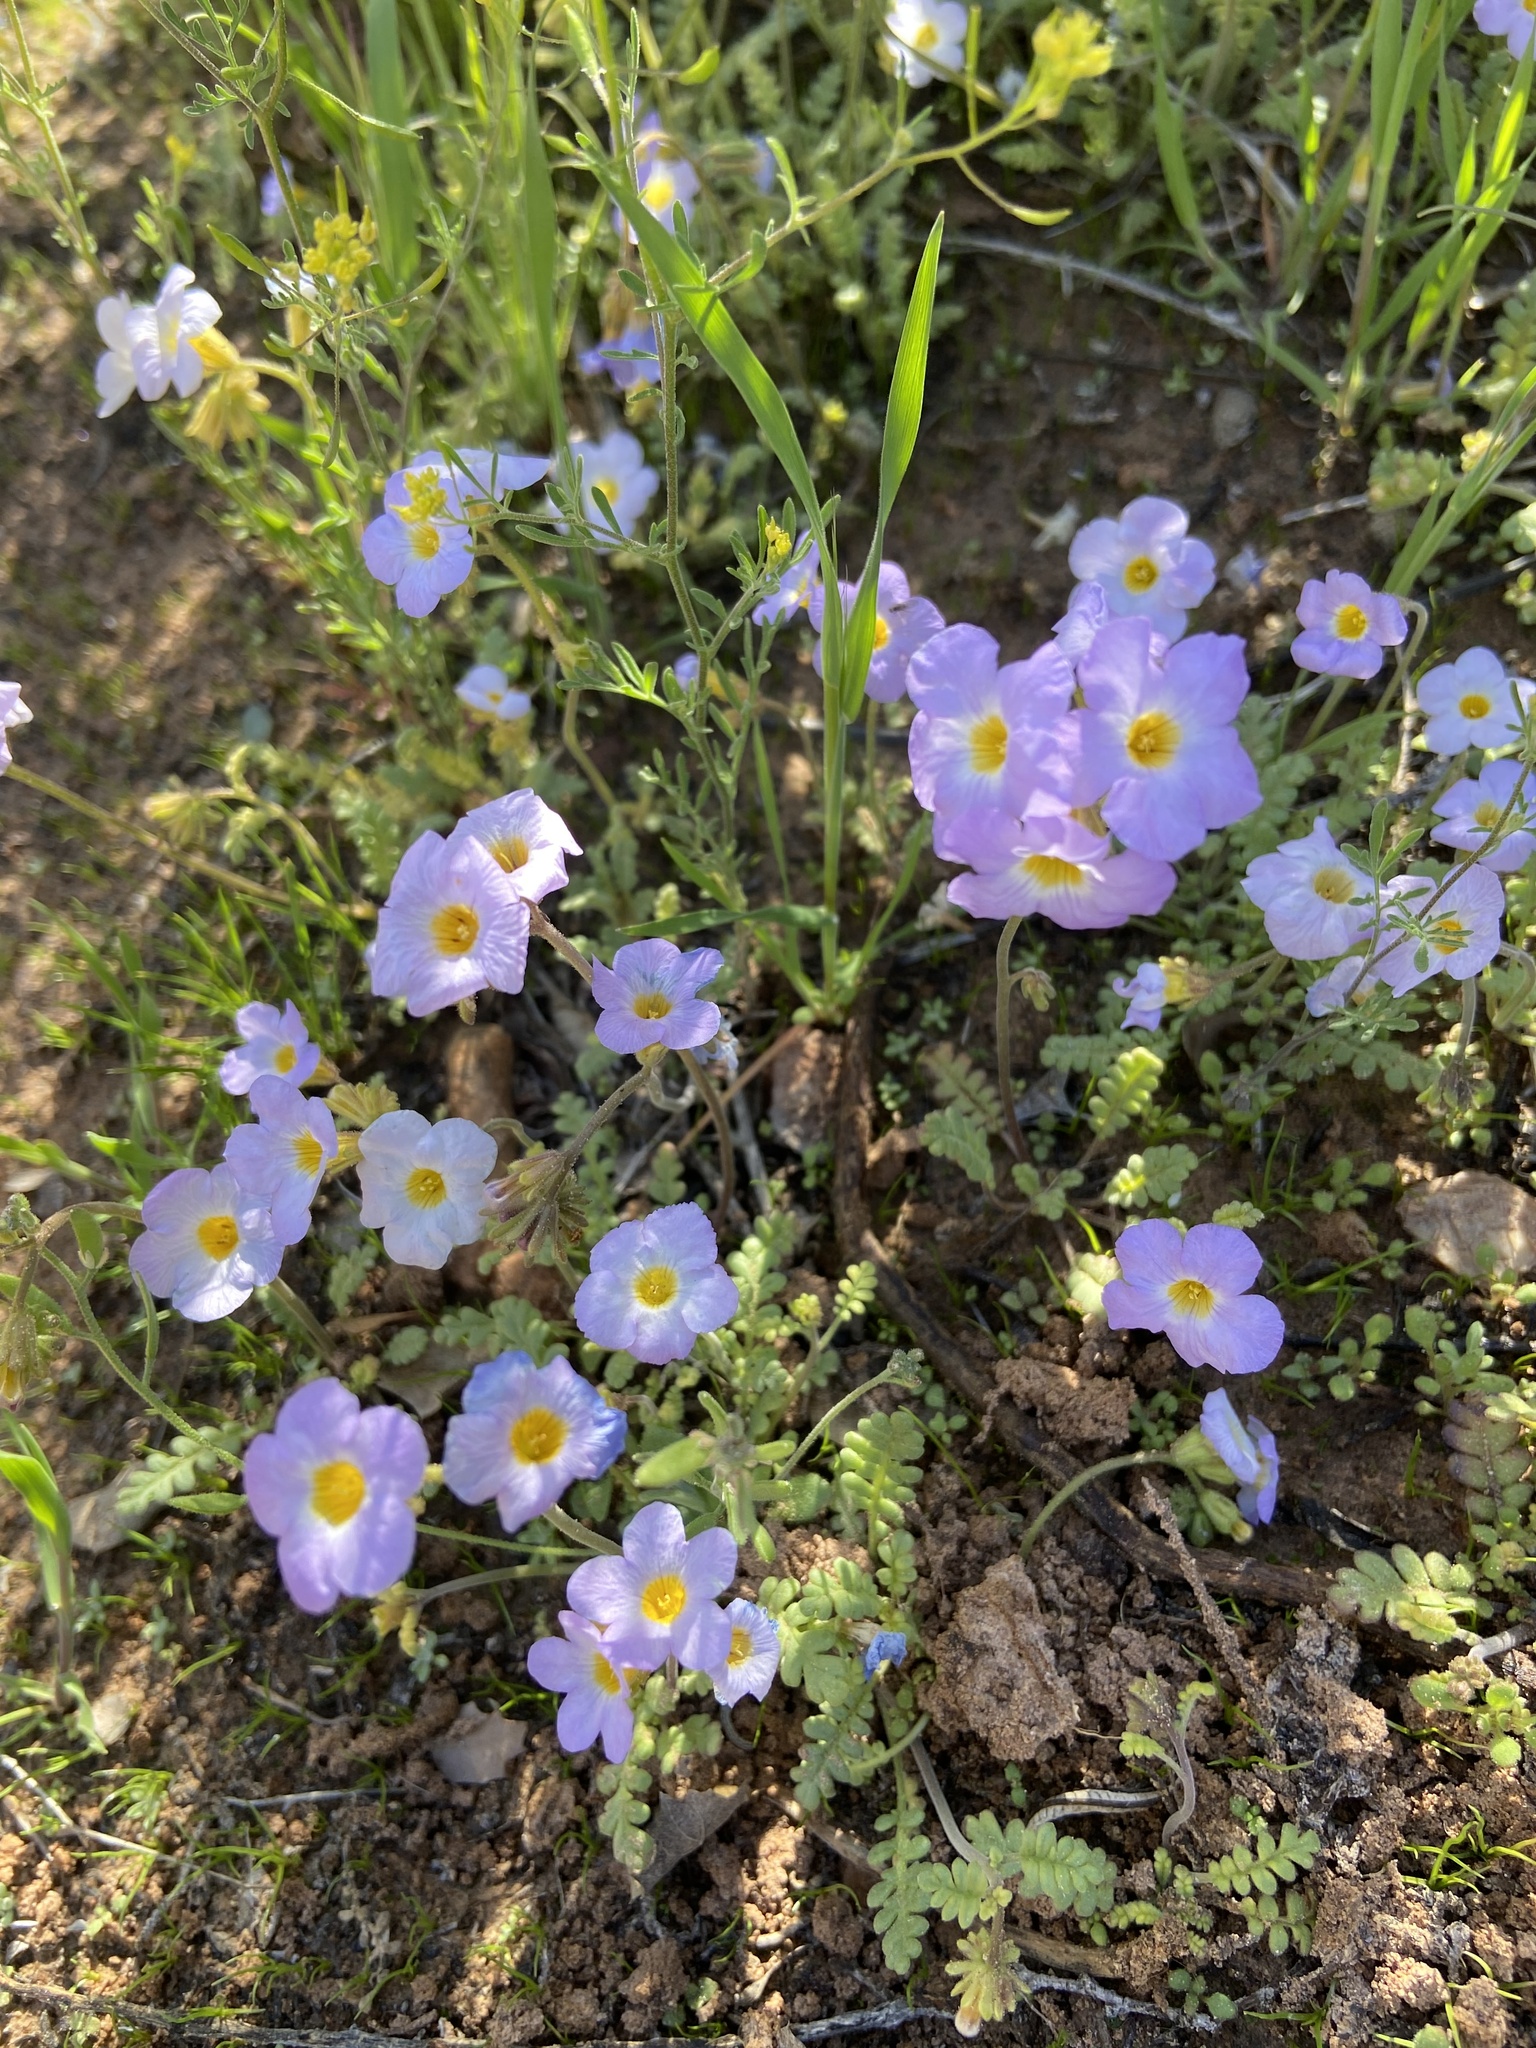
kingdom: Plantae
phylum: Tracheophyta
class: Magnoliopsida
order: Boraginales
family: Hydrophyllaceae
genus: Phacelia
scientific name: Phacelia fremontii
